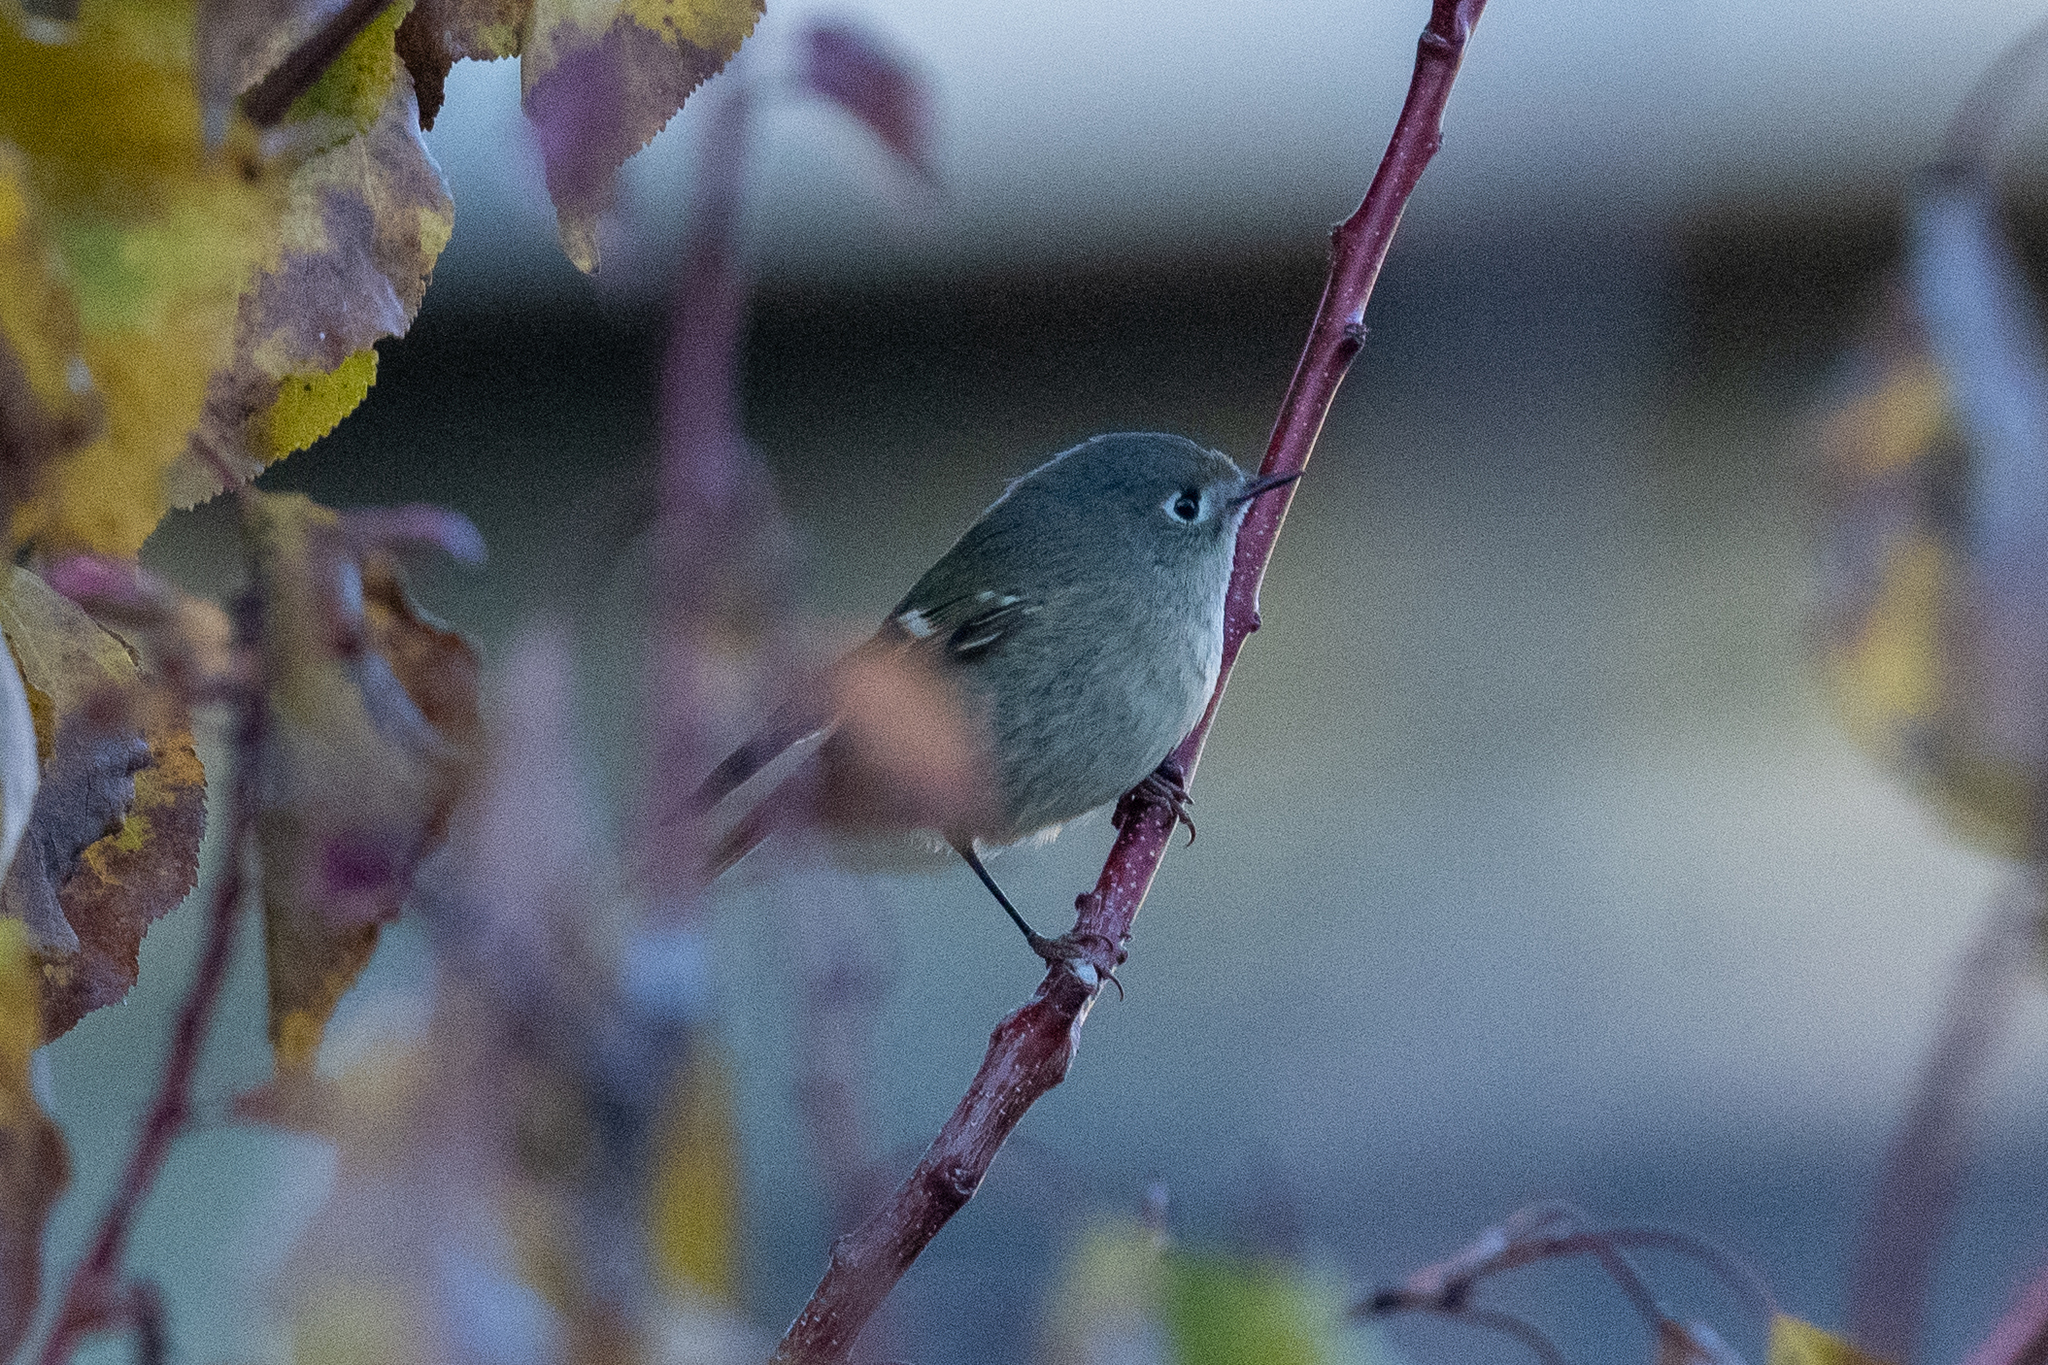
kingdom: Animalia
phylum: Chordata
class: Aves
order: Passeriformes
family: Regulidae
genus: Regulus
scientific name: Regulus calendula
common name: Ruby-crowned kinglet
